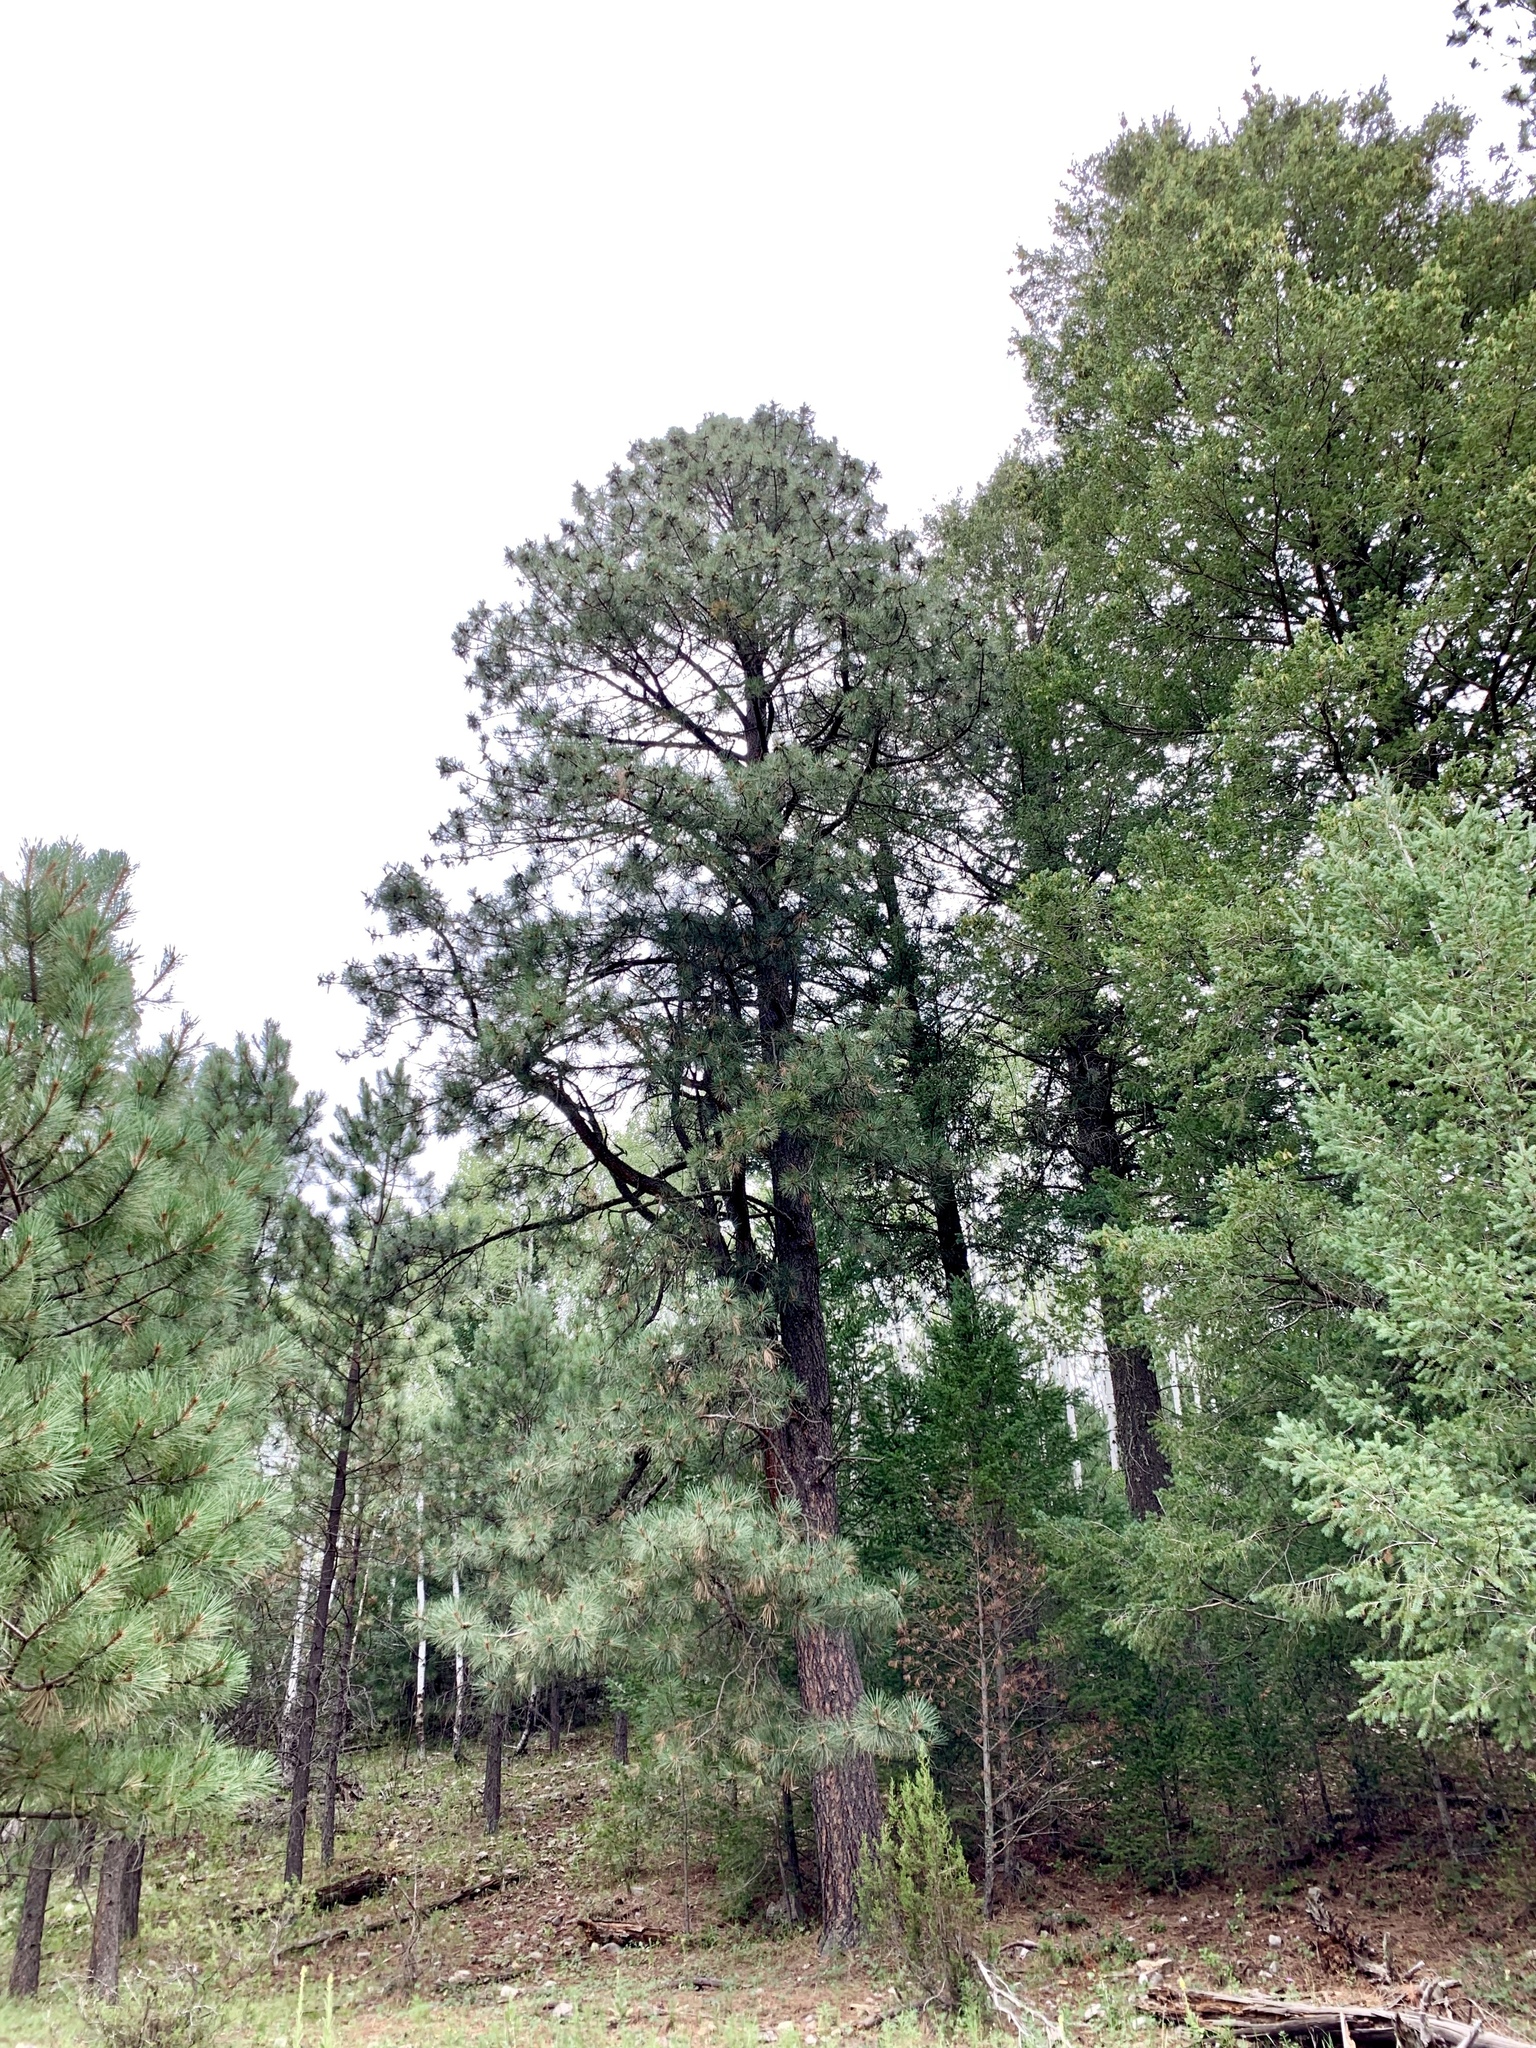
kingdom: Plantae
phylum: Tracheophyta
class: Pinopsida
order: Pinales
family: Pinaceae
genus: Pinus
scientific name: Pinus ponderosa
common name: Western yellow-pine
